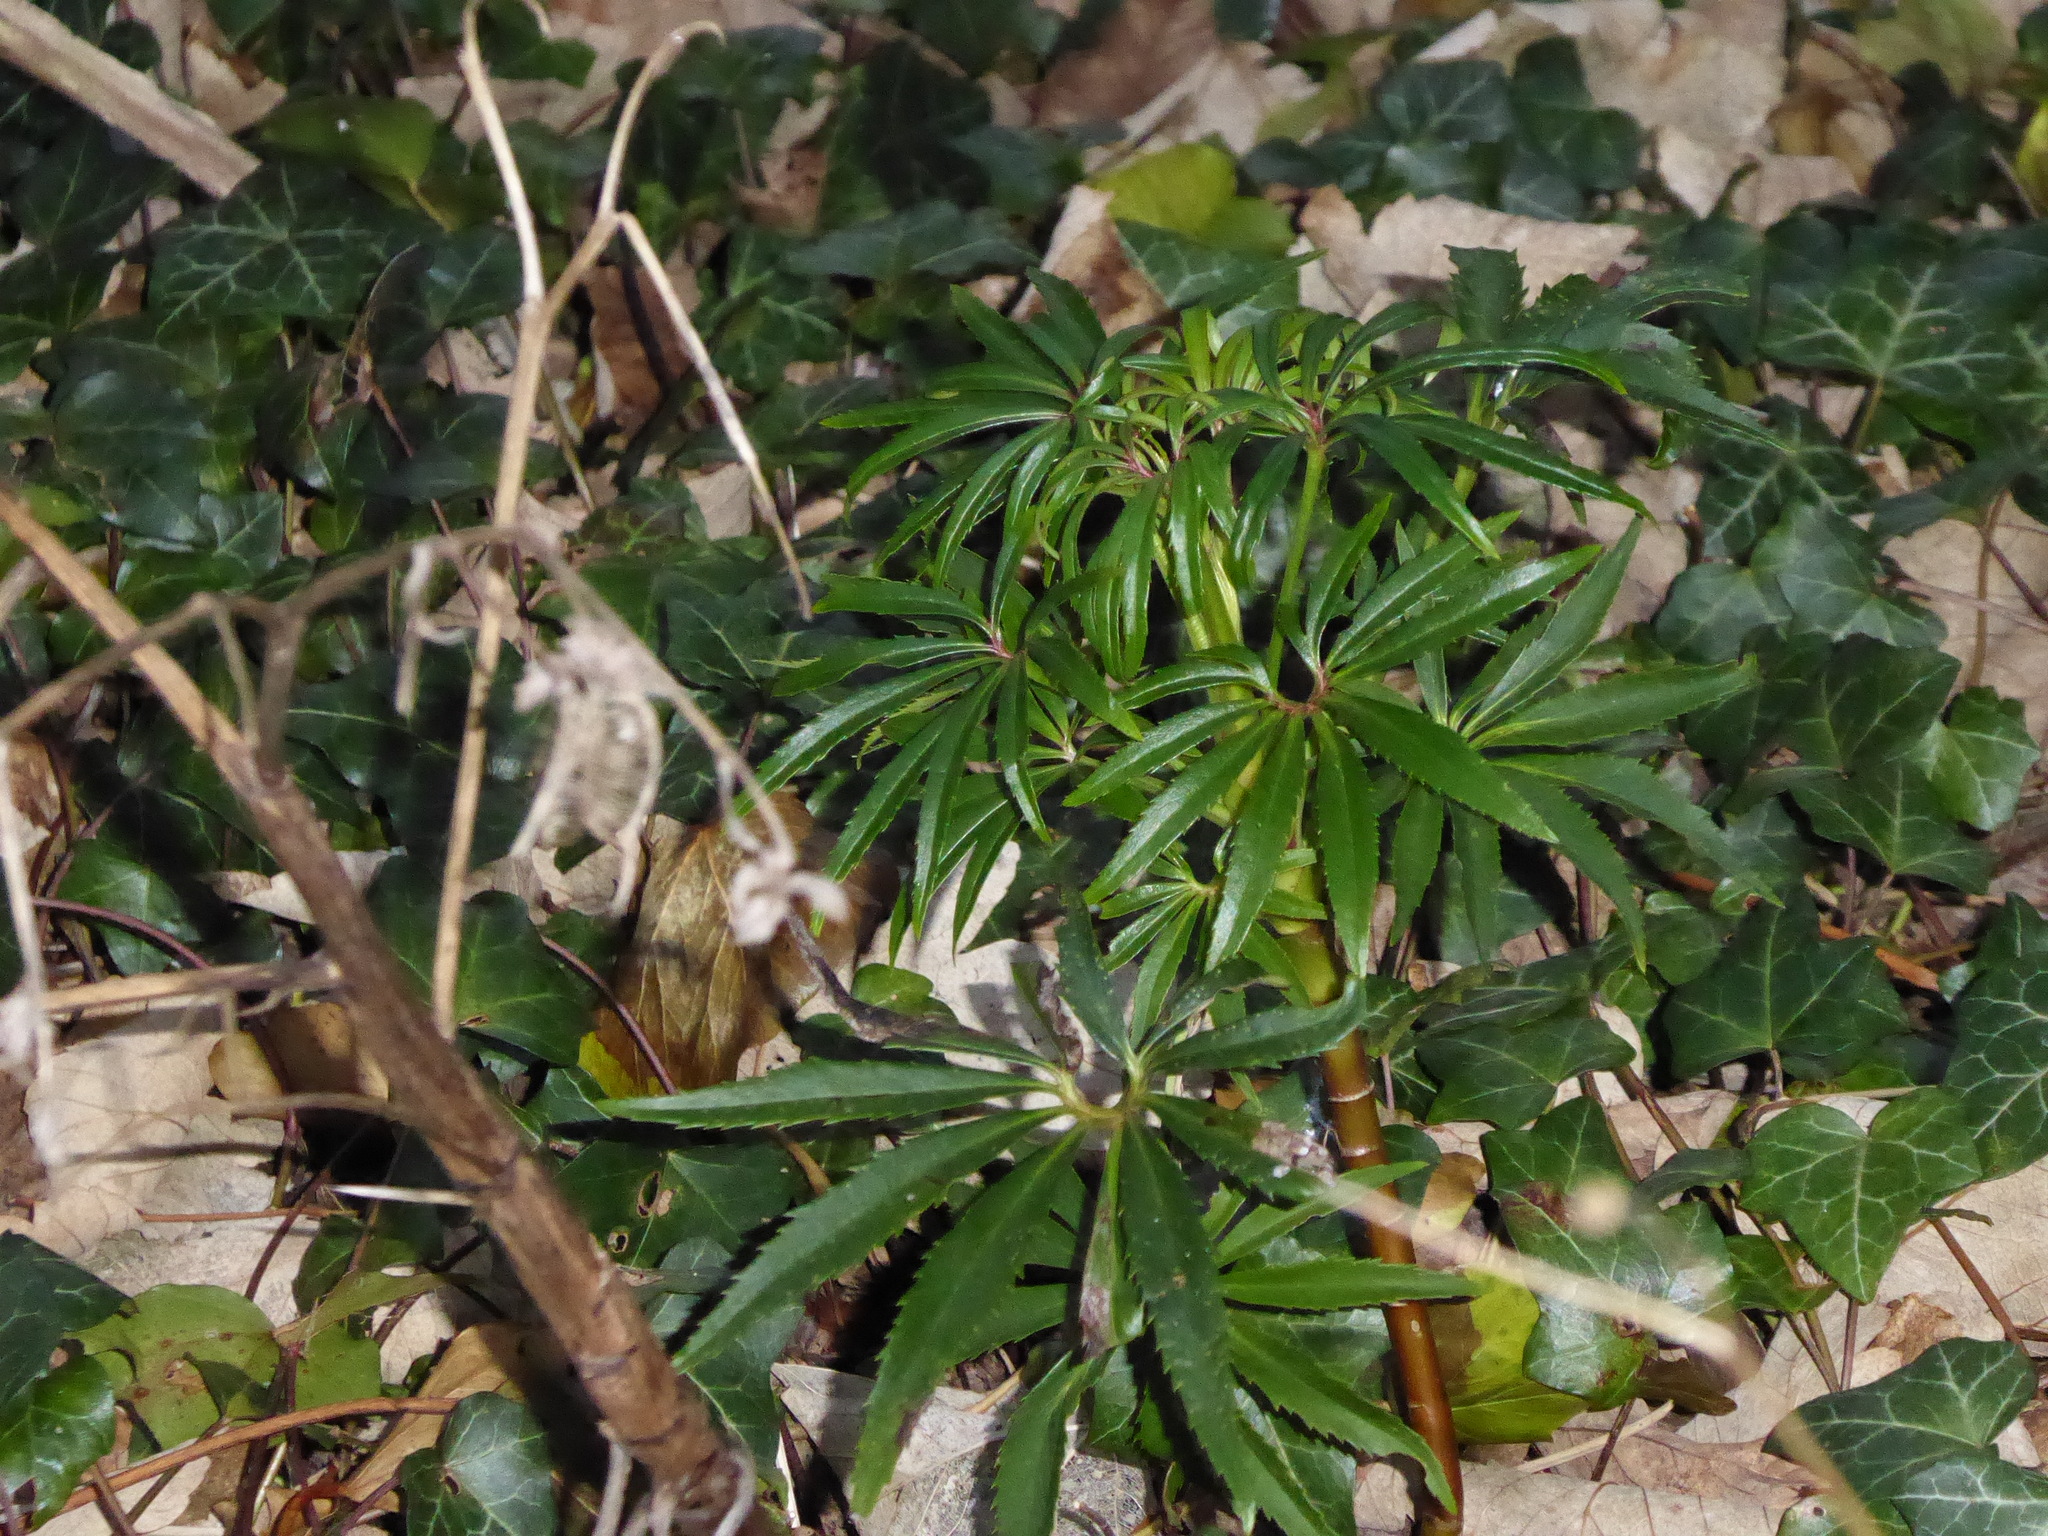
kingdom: Plantae
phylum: Tracheophyta
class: Magnoliopsida
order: Ranunculales
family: Ranunculaceae
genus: Helleborus
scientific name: Helleborus foetidus
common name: Stinking hellebore
